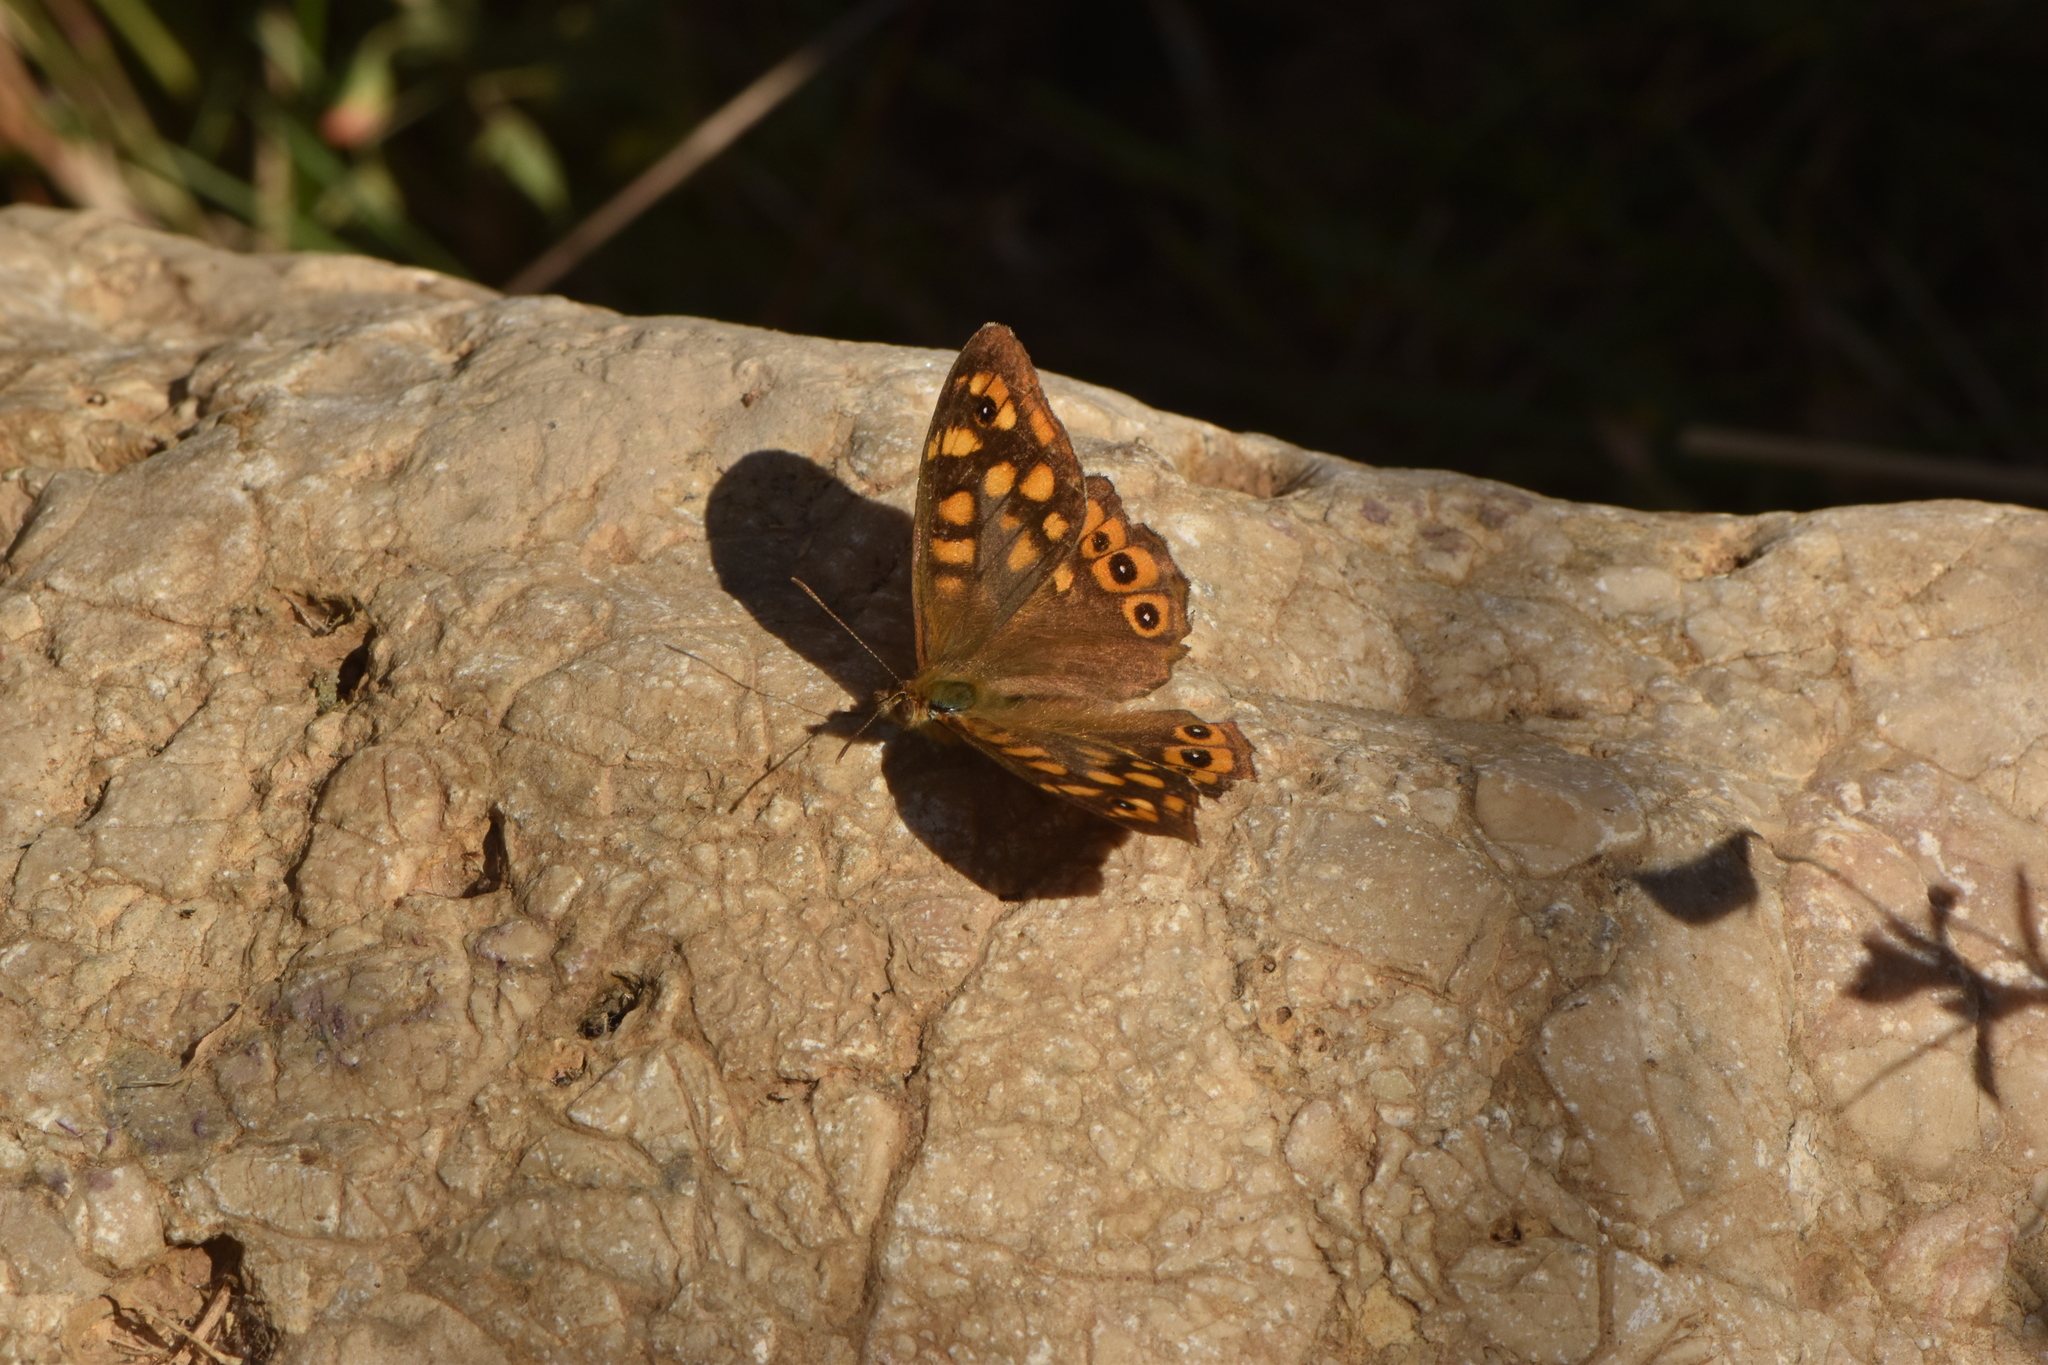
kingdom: Animalia
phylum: Arthropoda
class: Insecta
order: Lepidoptera
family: Nymphalidae
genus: Pararge
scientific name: Pararge aegeria
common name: Speckled wood
